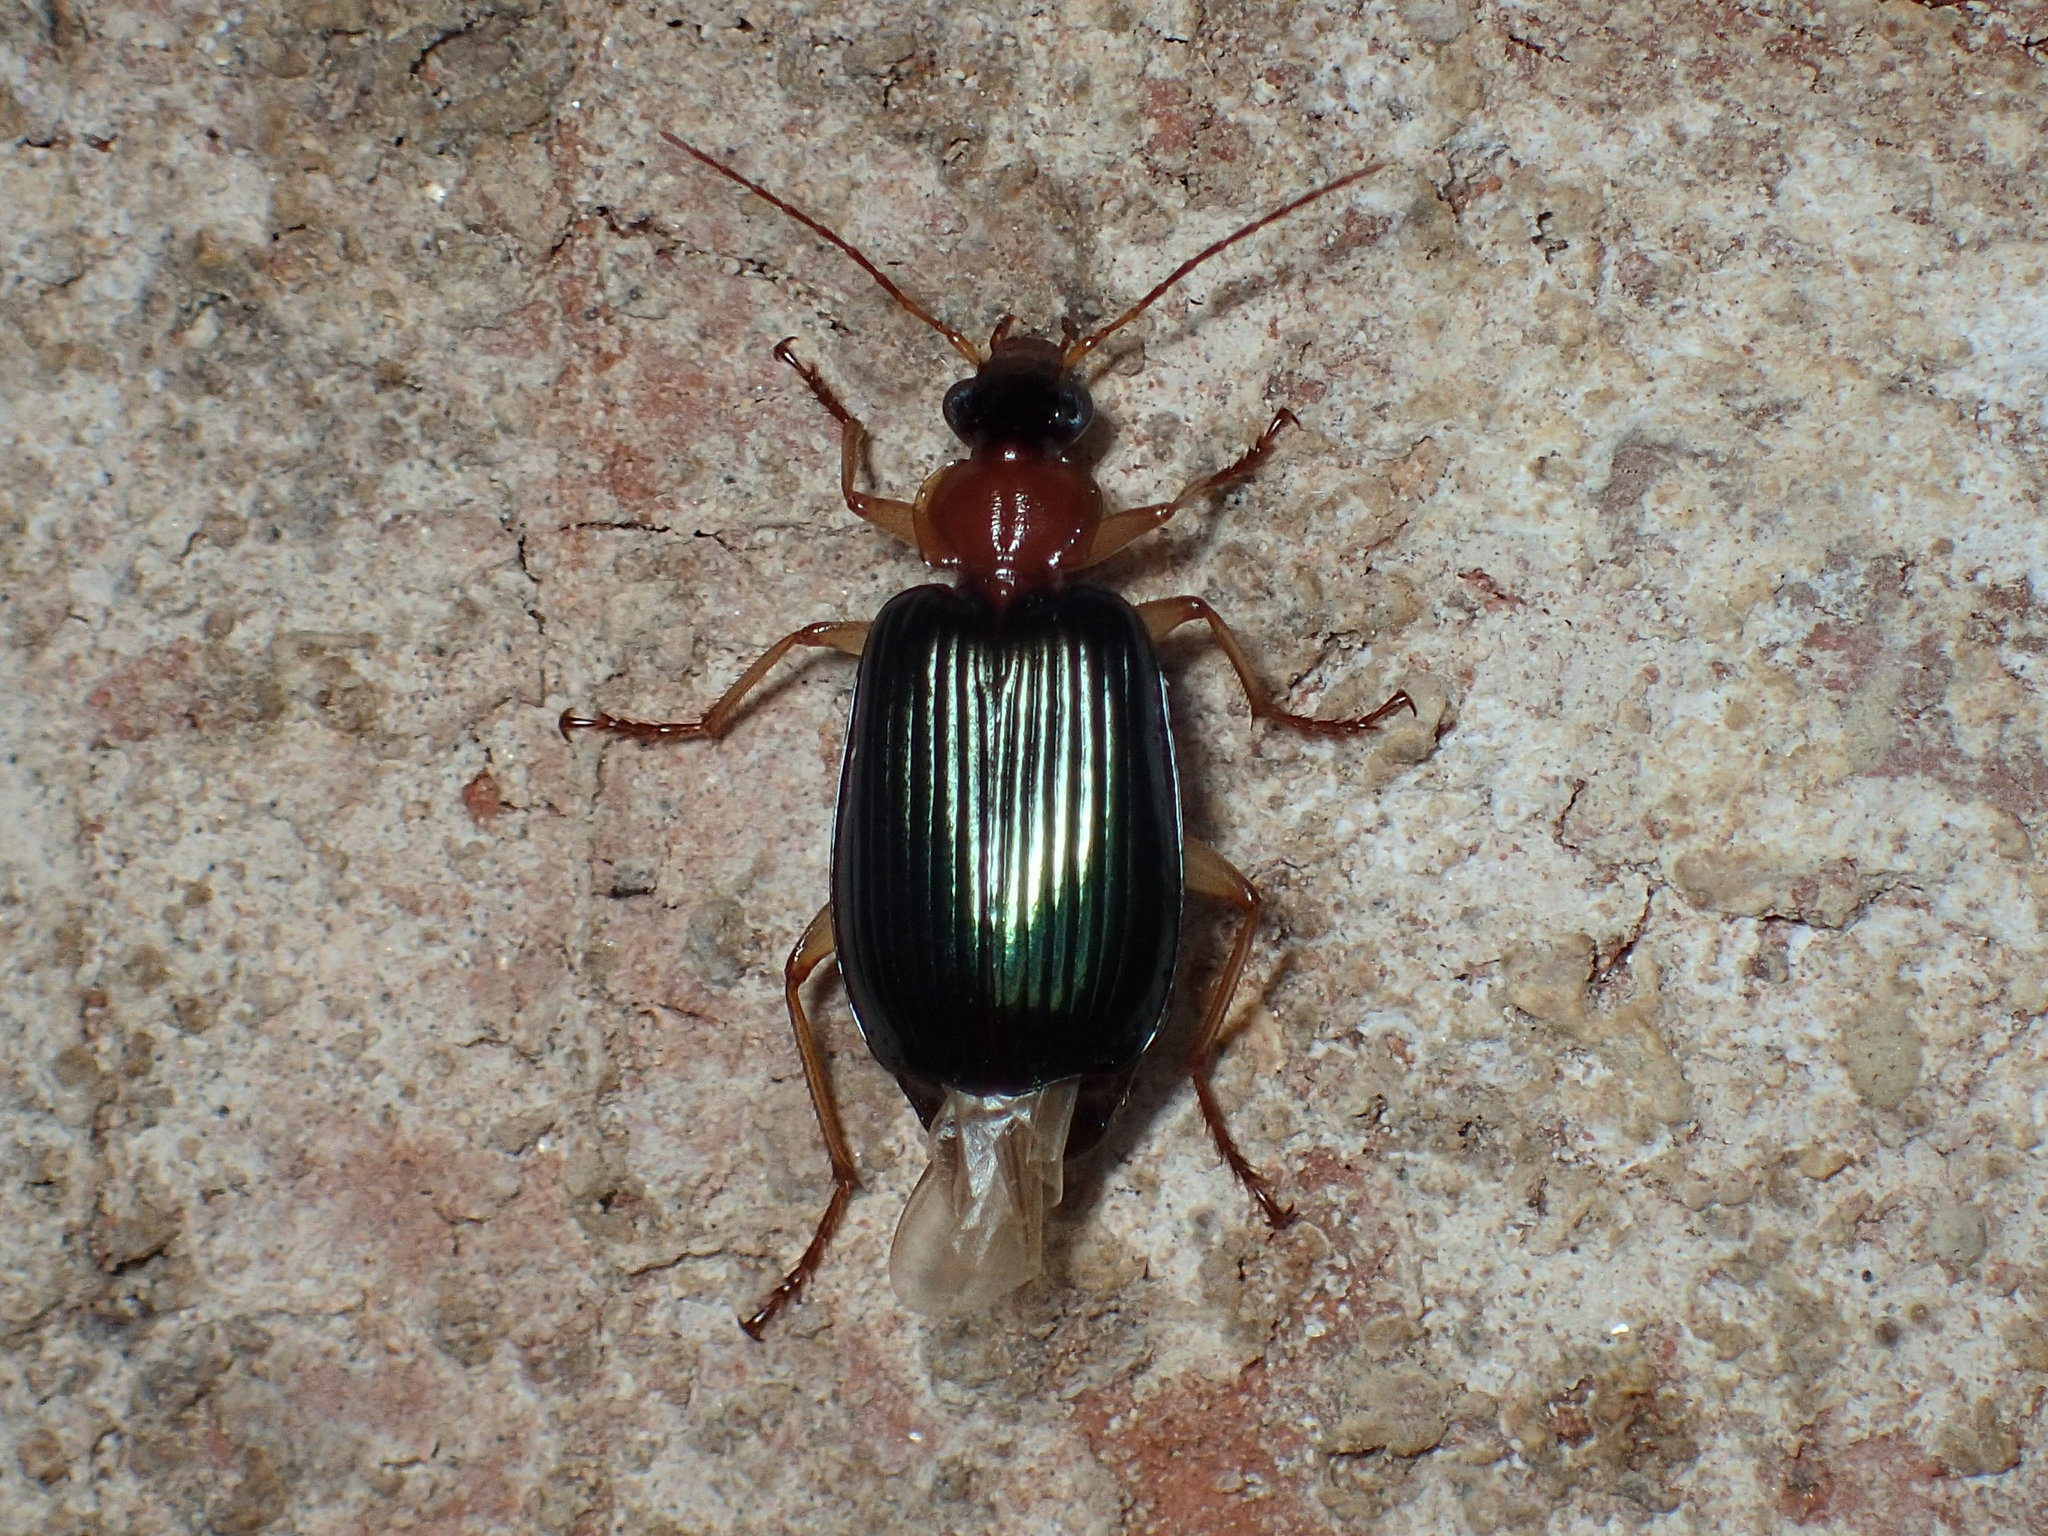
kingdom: Animalia
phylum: Arthropoda
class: Insecta
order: Coleoptera
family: Carabidae
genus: Lebia
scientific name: Lebia grandis
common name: Large foliage ground beetle
